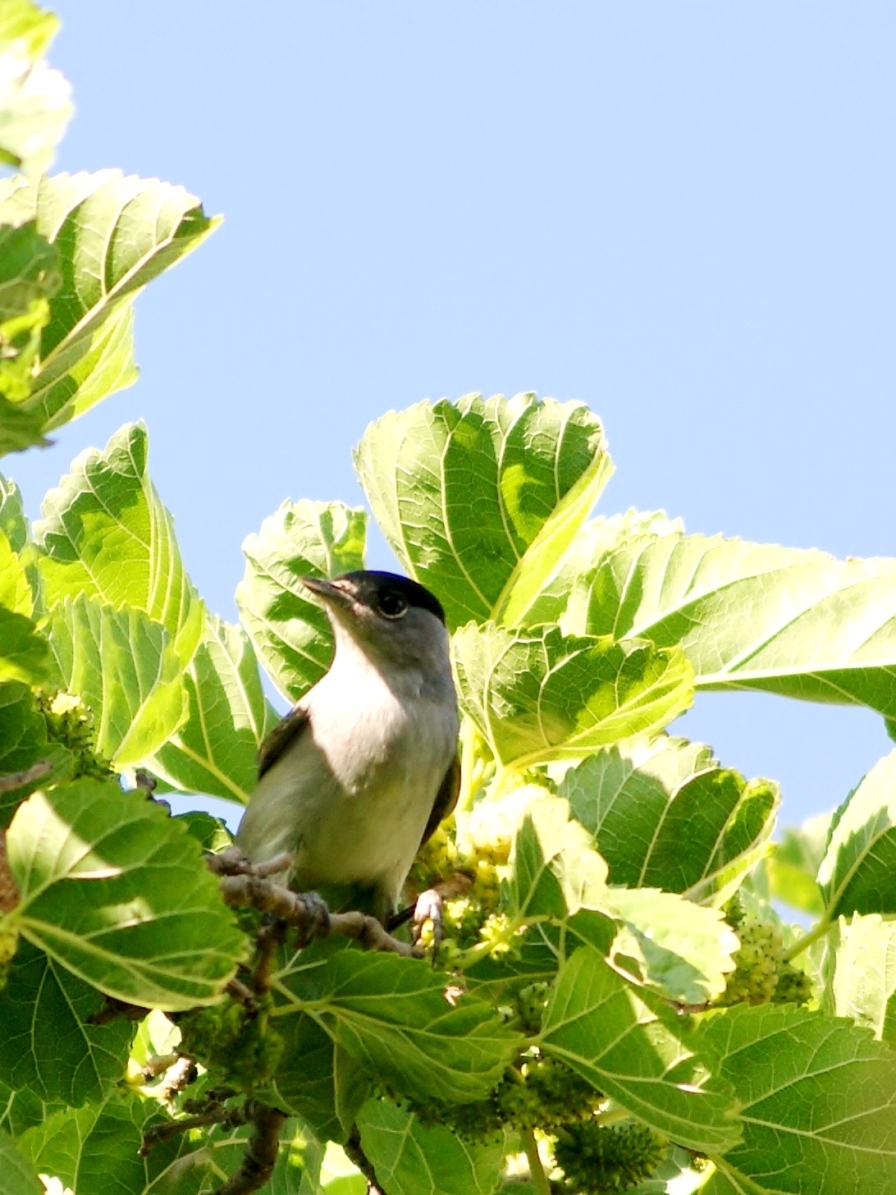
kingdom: Animalia
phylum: Chordata
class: Aves
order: Passeriformes
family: Sylviidae
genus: Sylvia
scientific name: Sylvia atricapilla
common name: Eurasian blackcap
